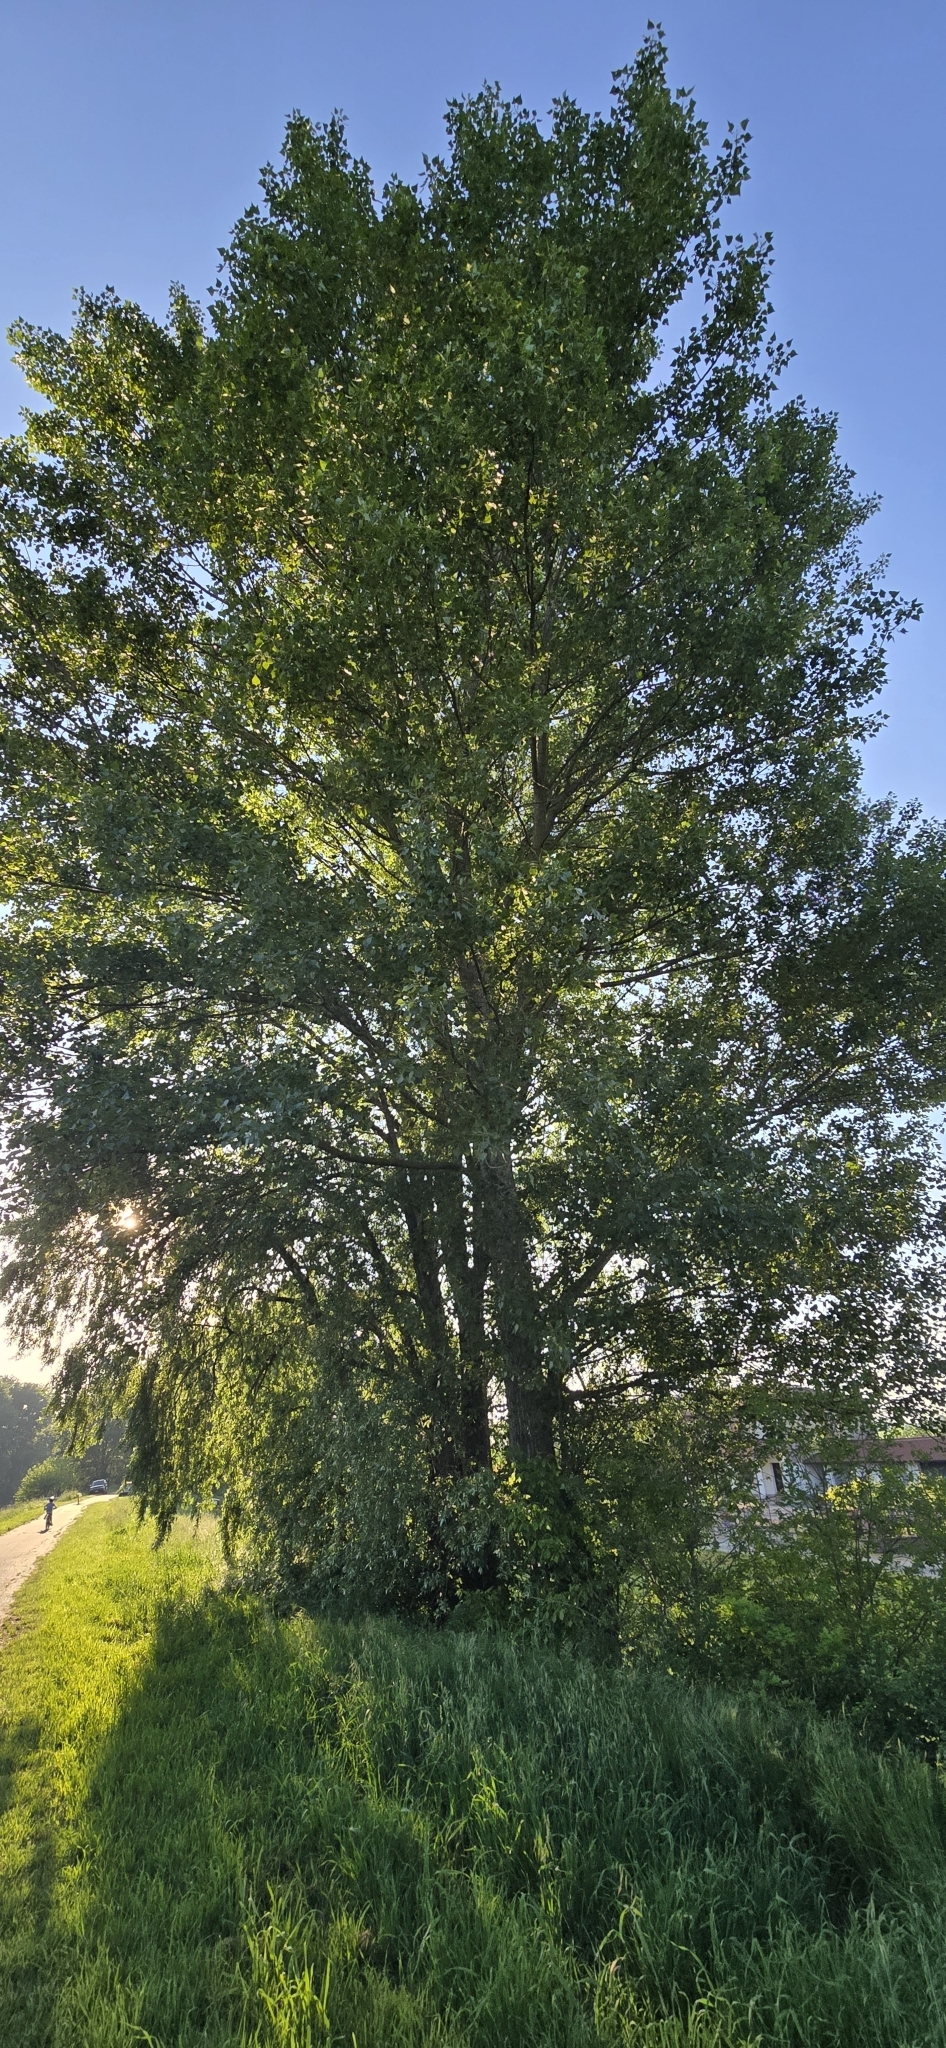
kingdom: Plantae
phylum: Tracheophyta
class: Magnoliopsida
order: Malpighiales
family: Salicaceae
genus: Salix
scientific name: Salix alba
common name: White willow
